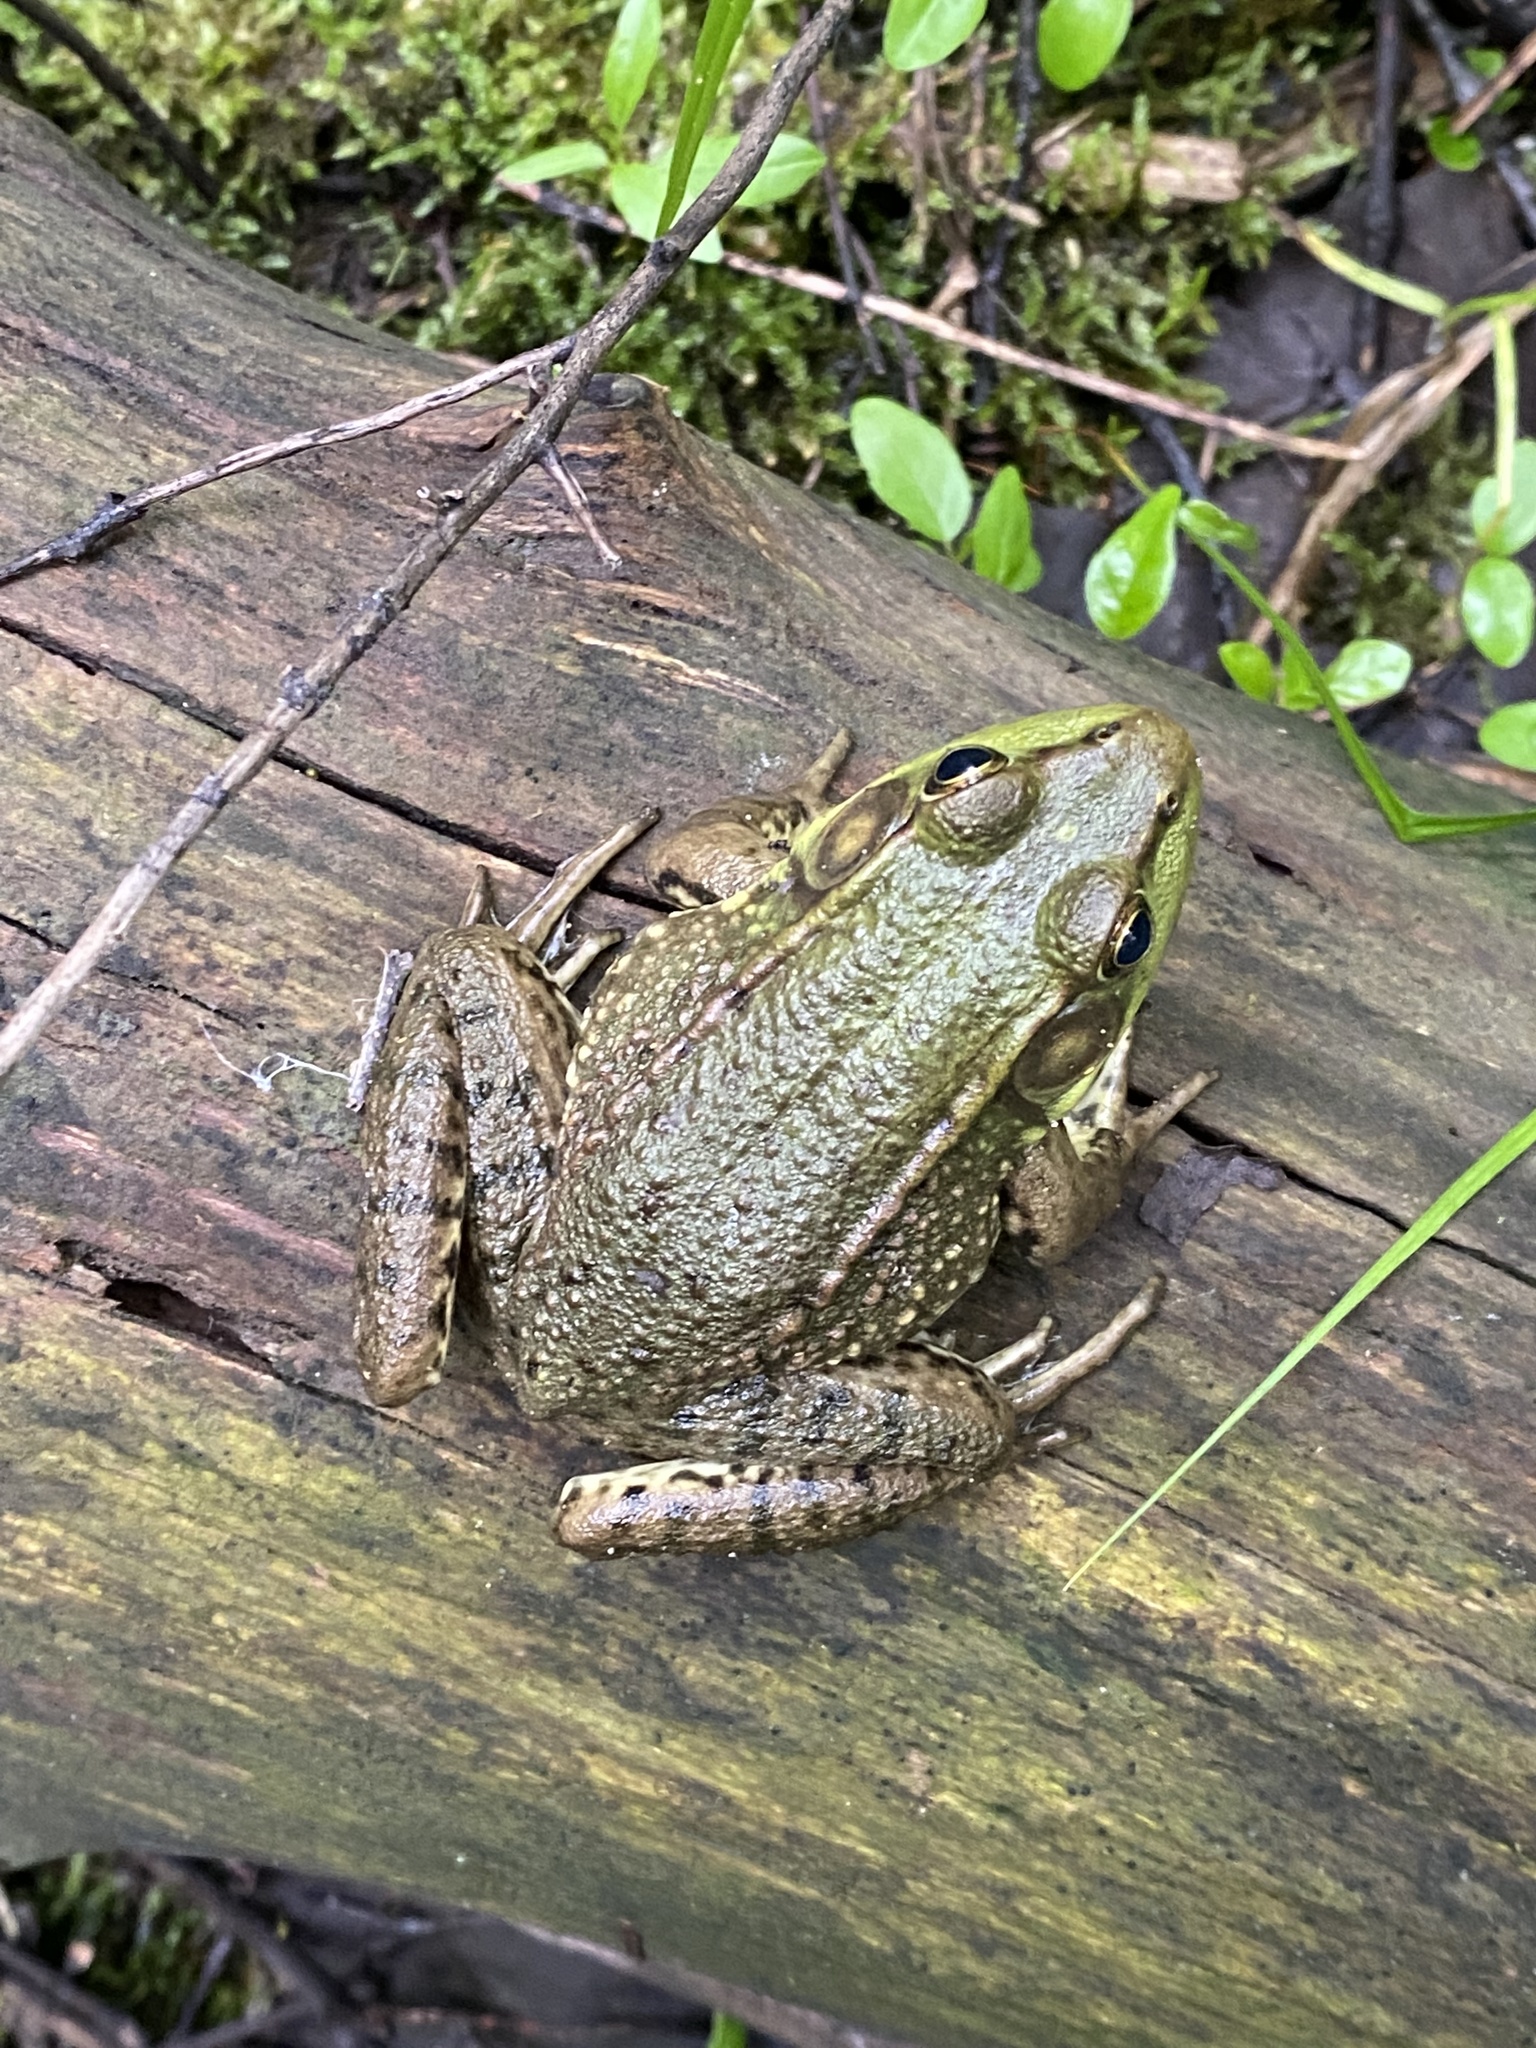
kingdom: Animalia
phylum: Chordata
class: Amphibia
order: Anura
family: Ranidae
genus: Lithobates
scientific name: Lithobates clamitans
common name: Green frog
